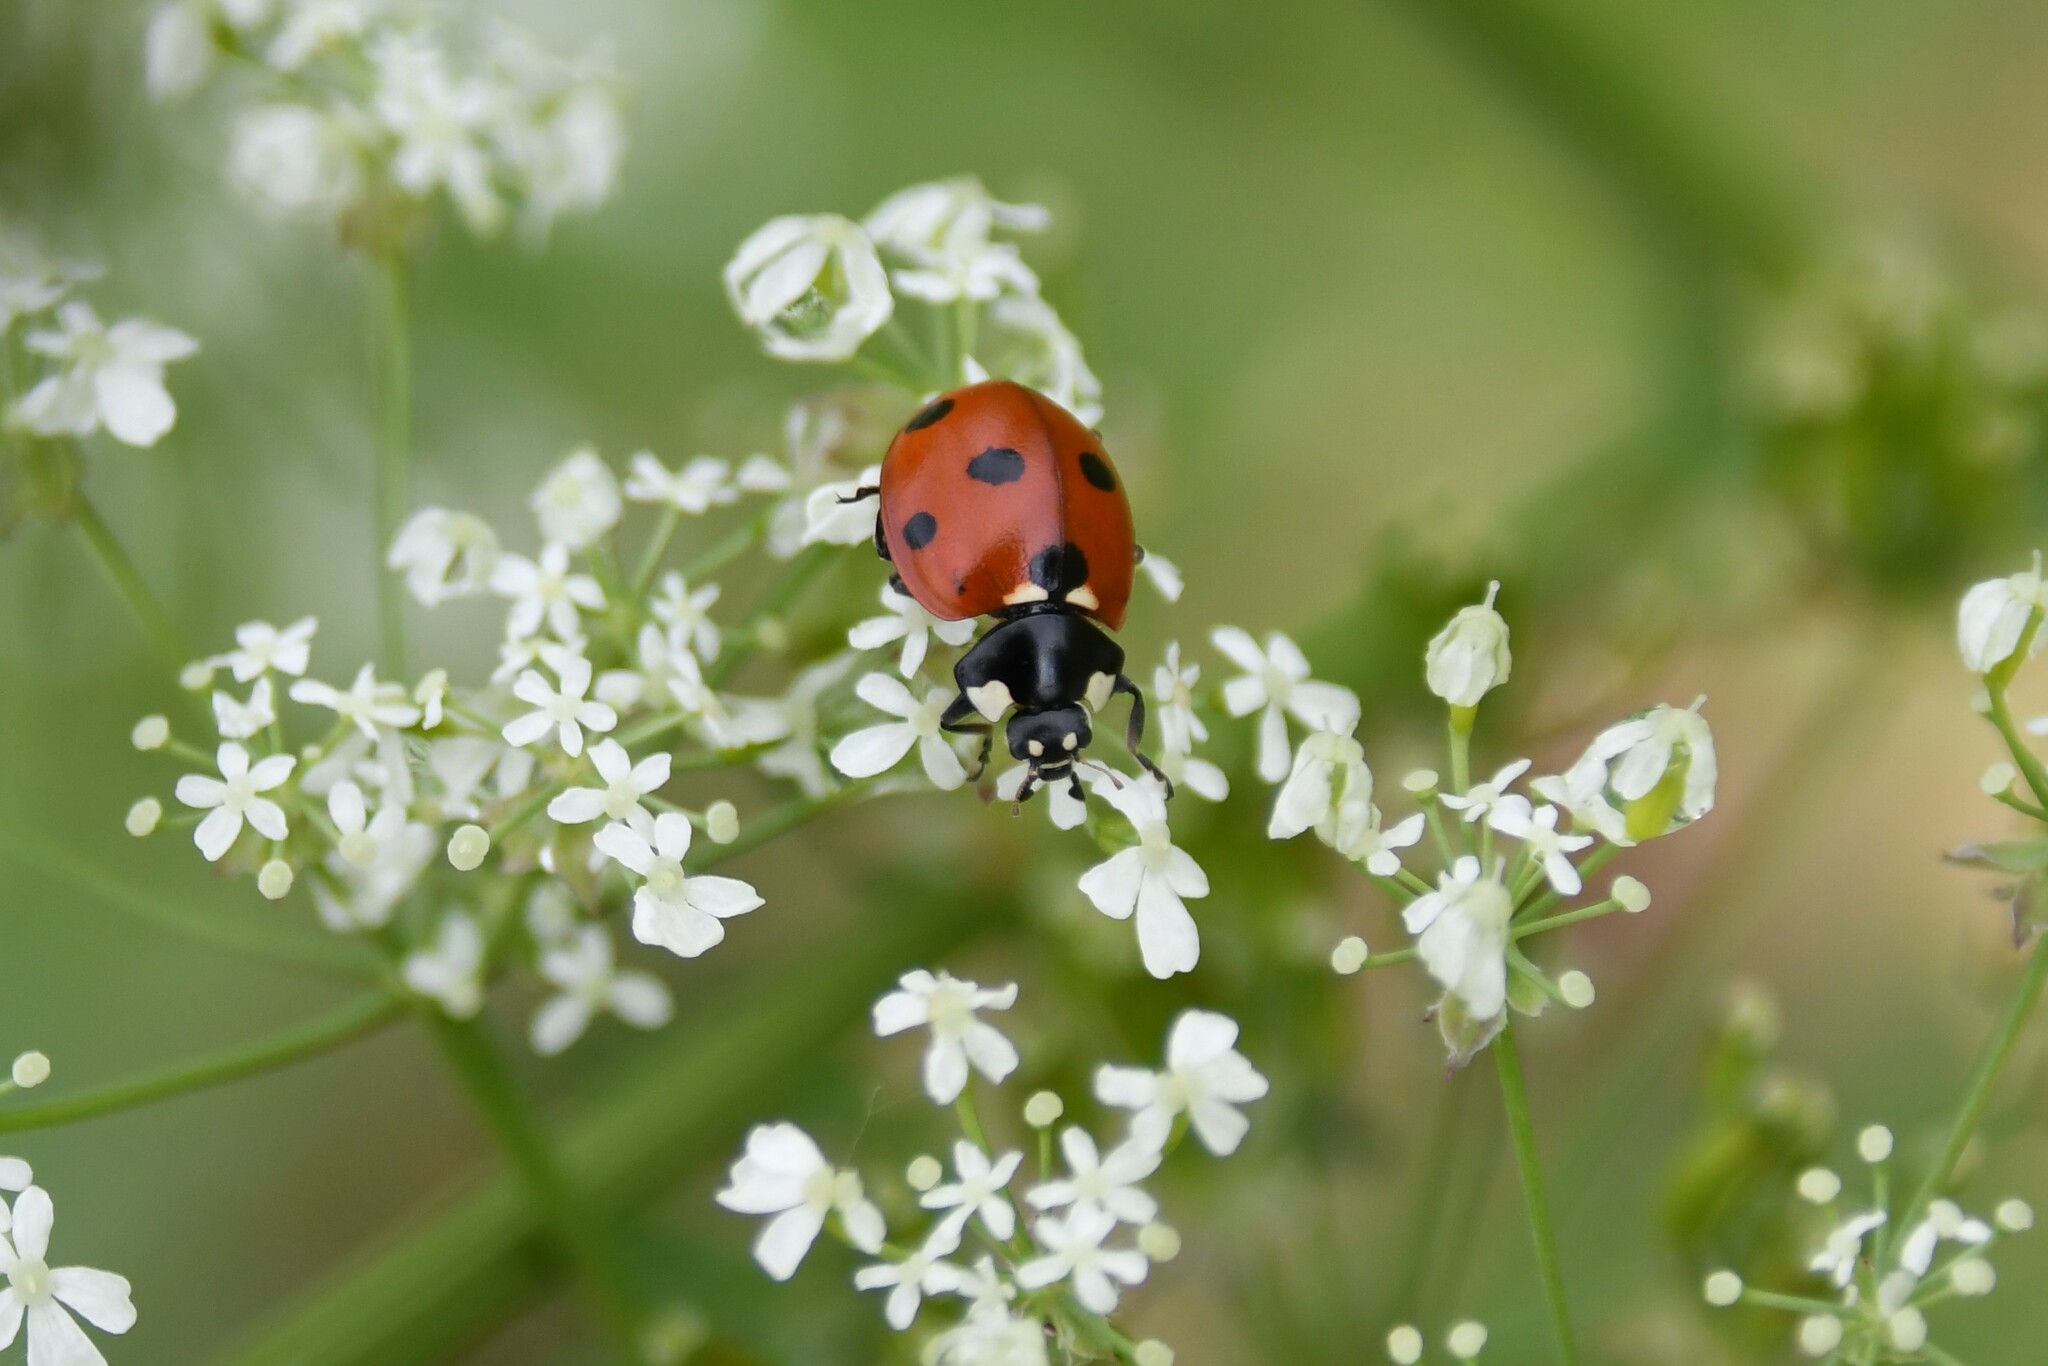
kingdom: Animalia
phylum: Arthropoda
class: Insecta
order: Coleoptera
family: Coccinellidae
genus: Coccinella
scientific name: Coccinella septempunctata
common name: Sevenspotted lady beetle
